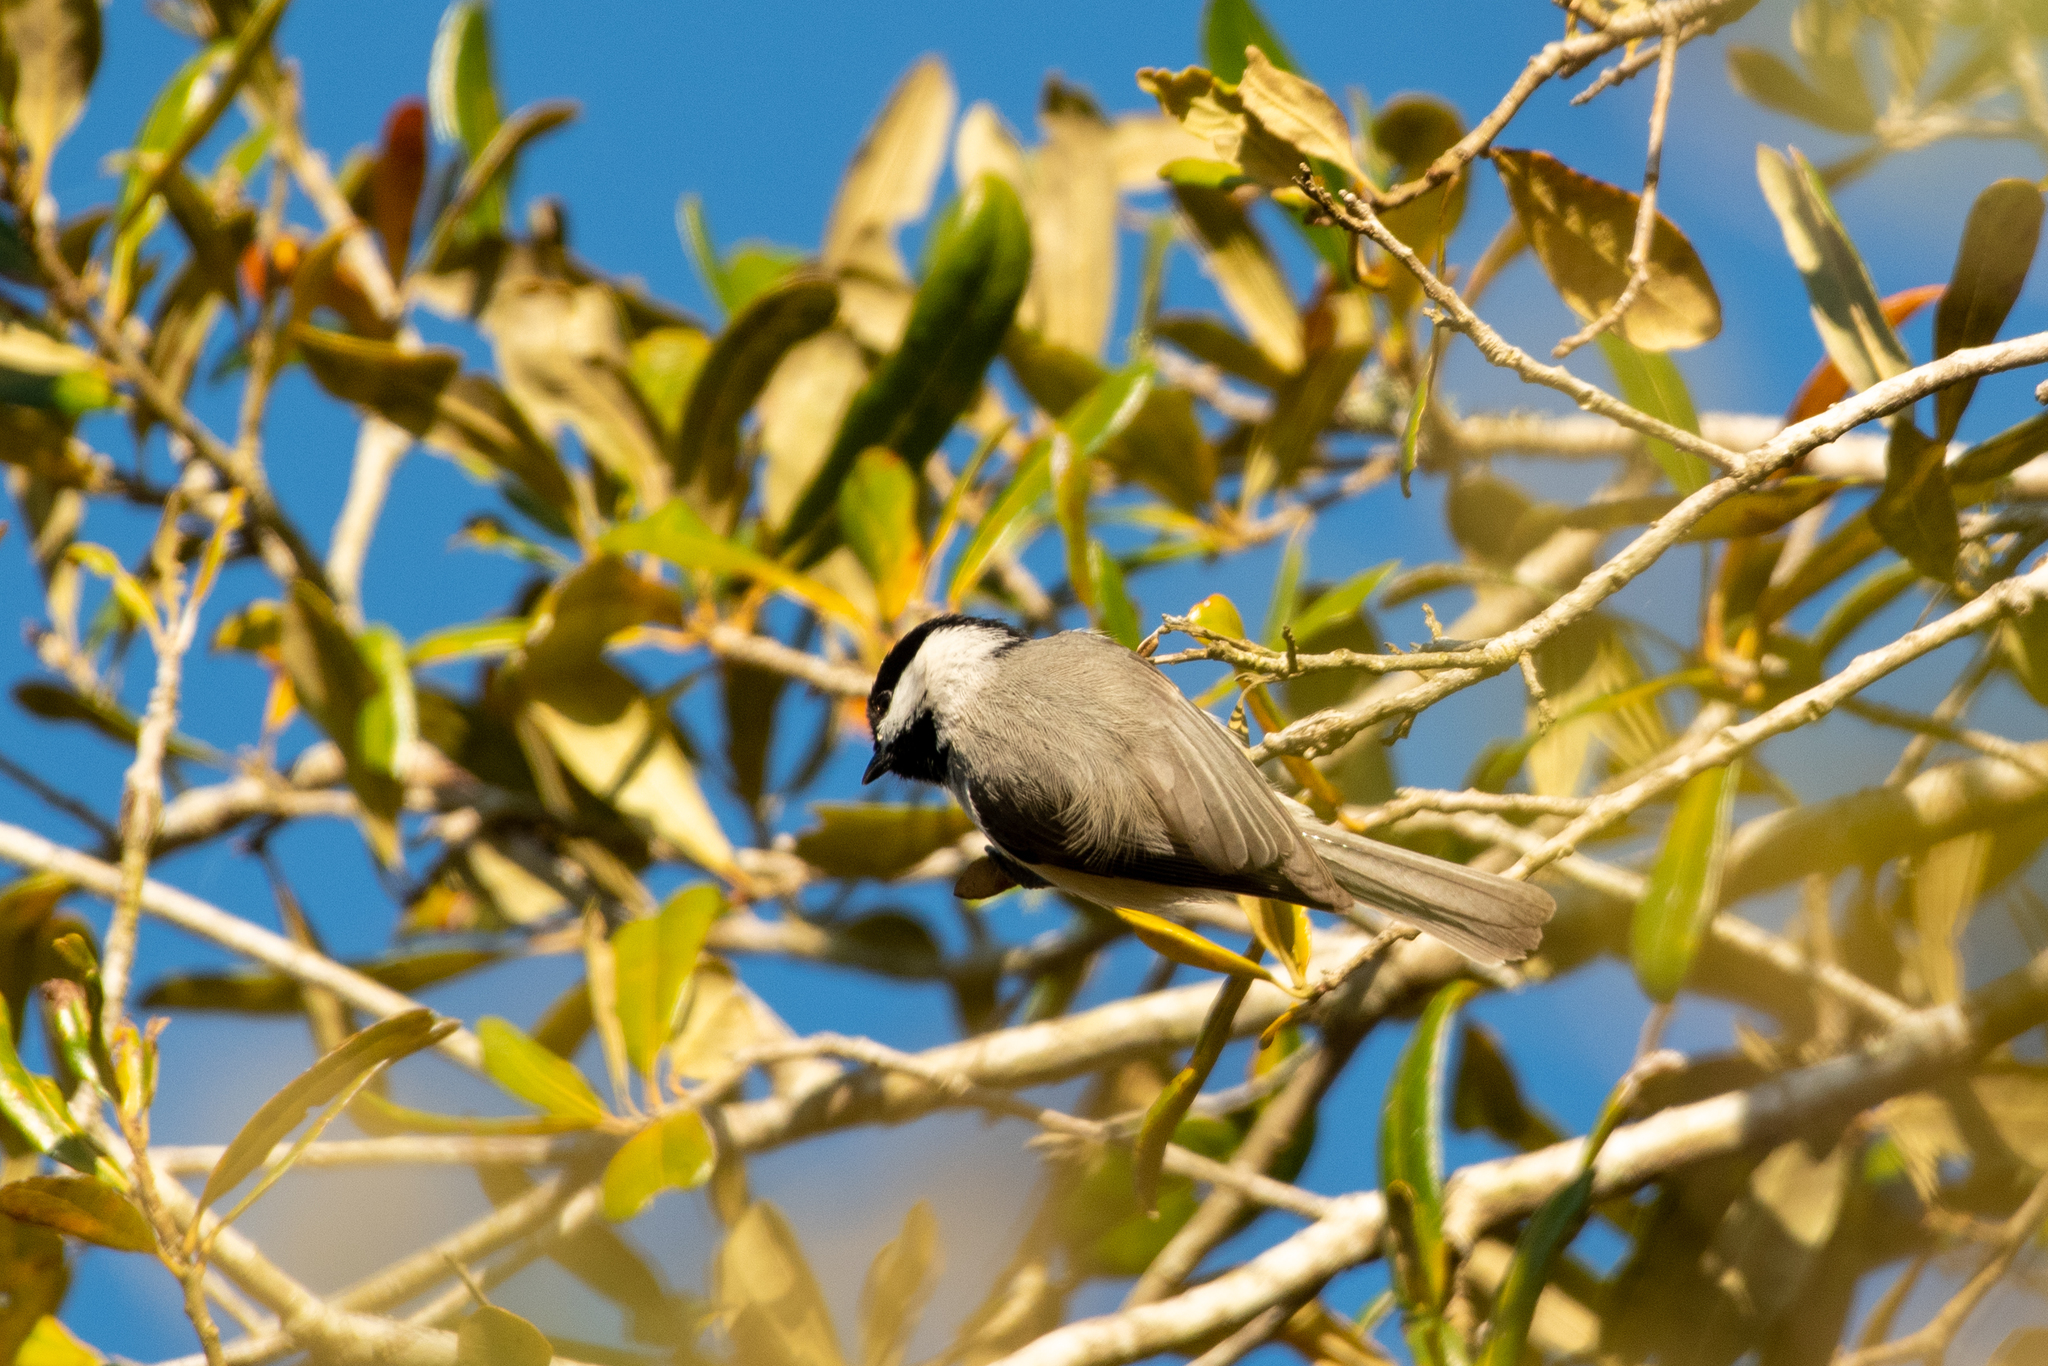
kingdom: Animalia
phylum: Chordata
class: Aves
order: Passeriformes
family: Paridae
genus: Poecile
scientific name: Poecile carolinensis
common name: Carolina chickadee
